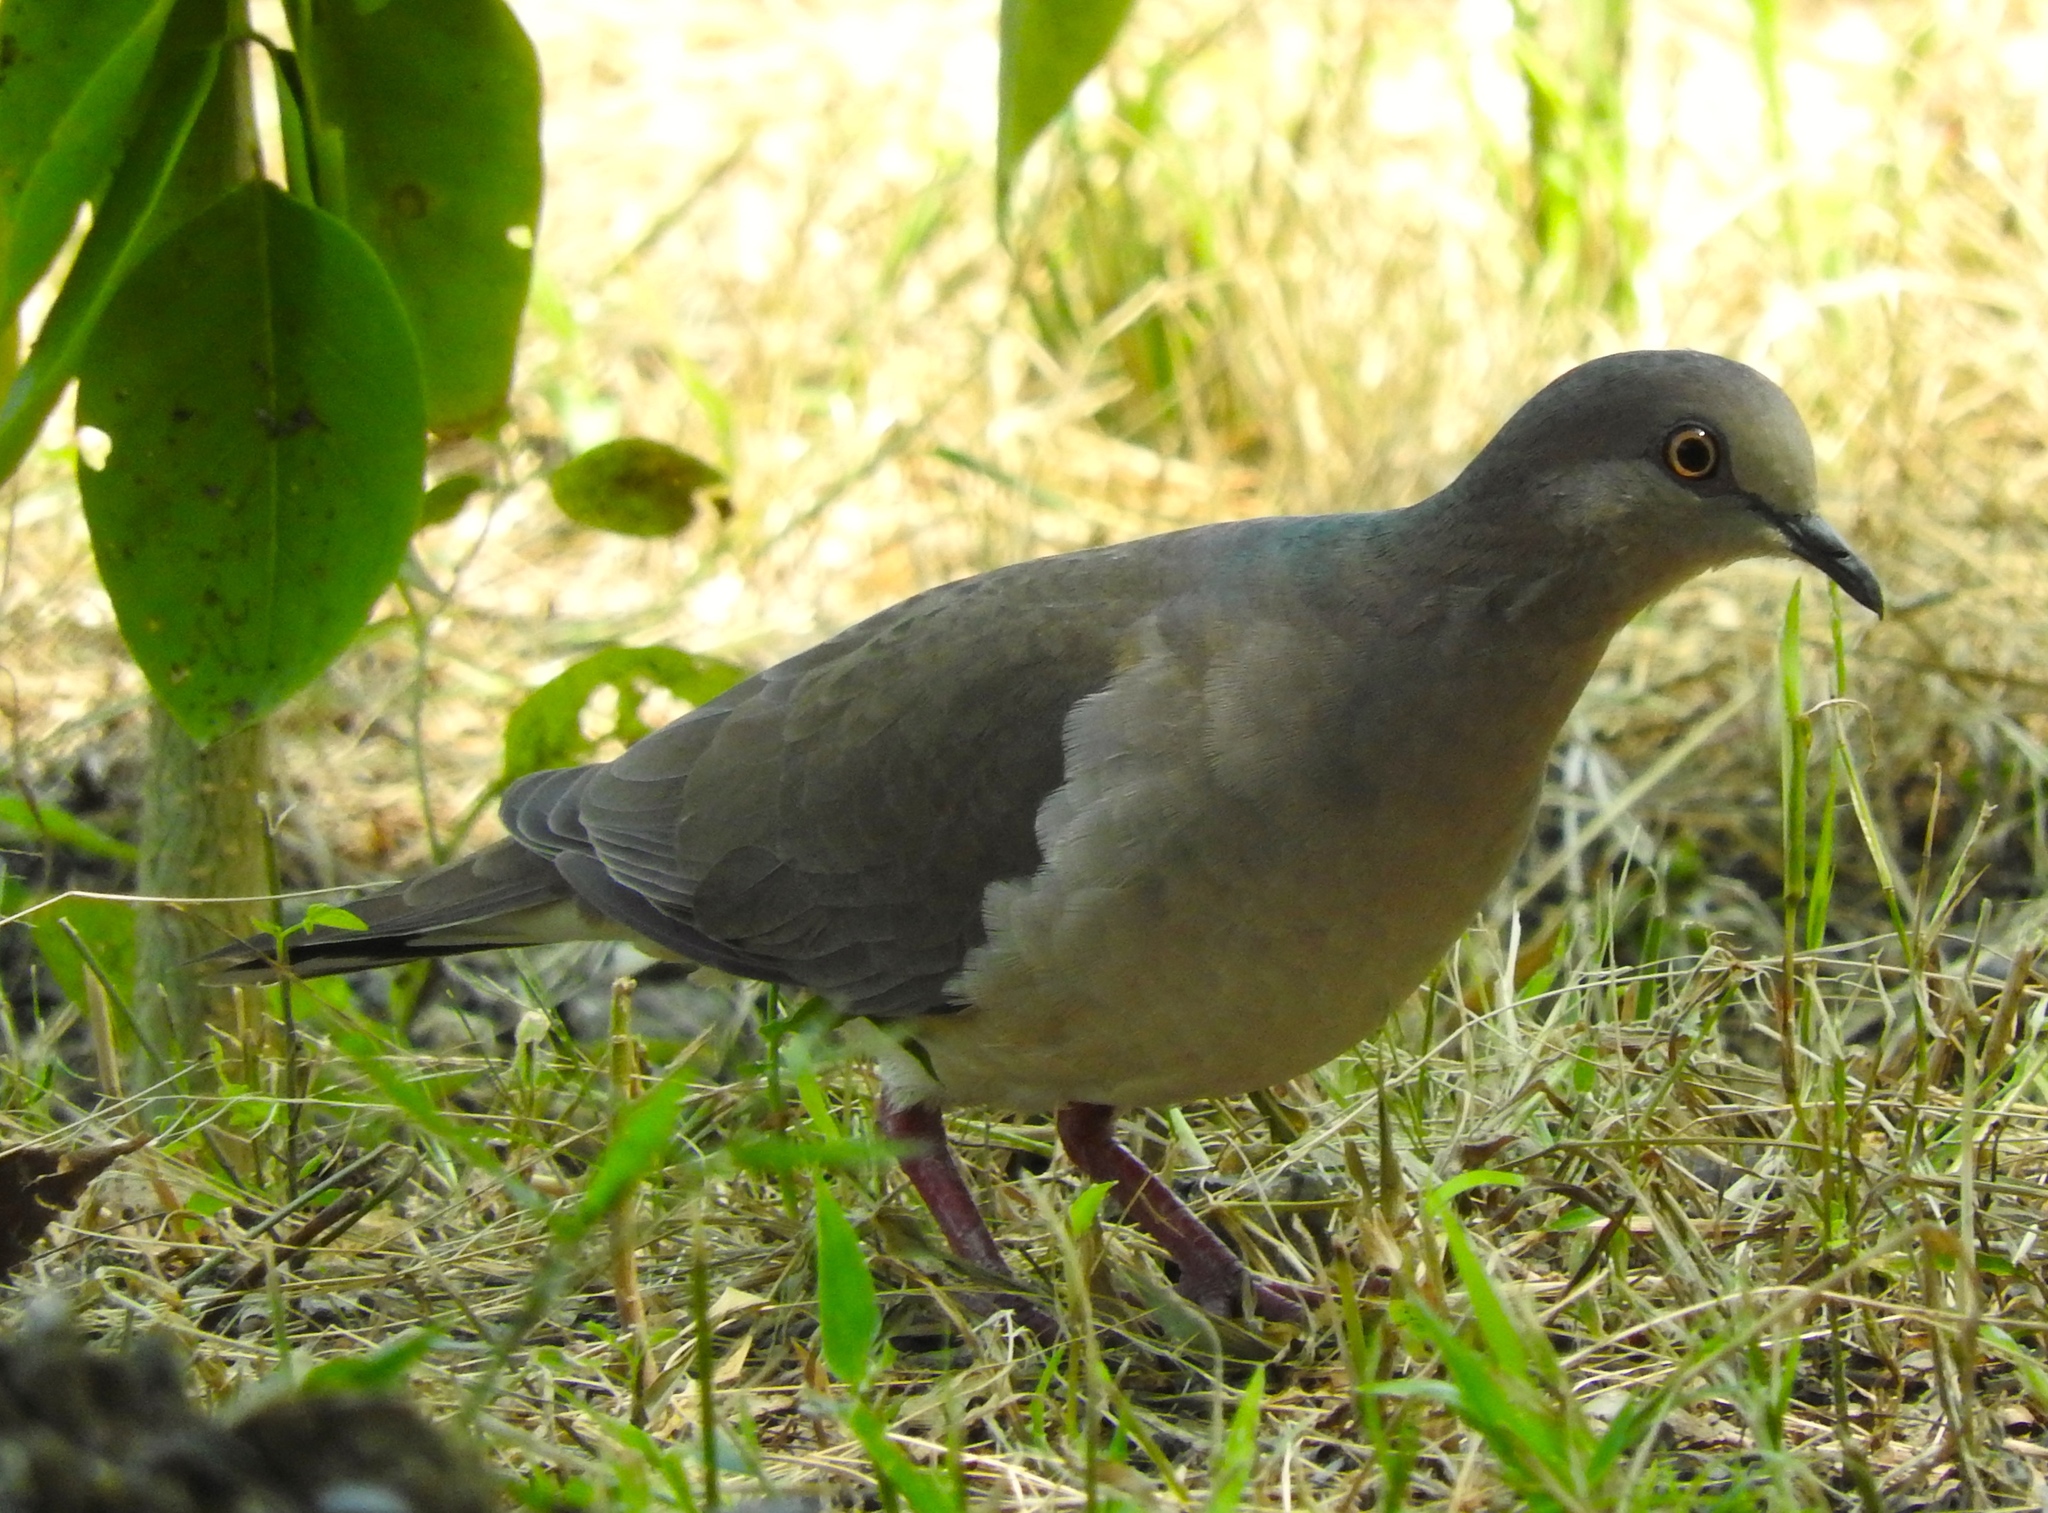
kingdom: Animalia
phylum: Chordata
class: Aves
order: Columbiformes
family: Columbidae
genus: Leptotila
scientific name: Leptotila verreauxi
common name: White-tipped dove
